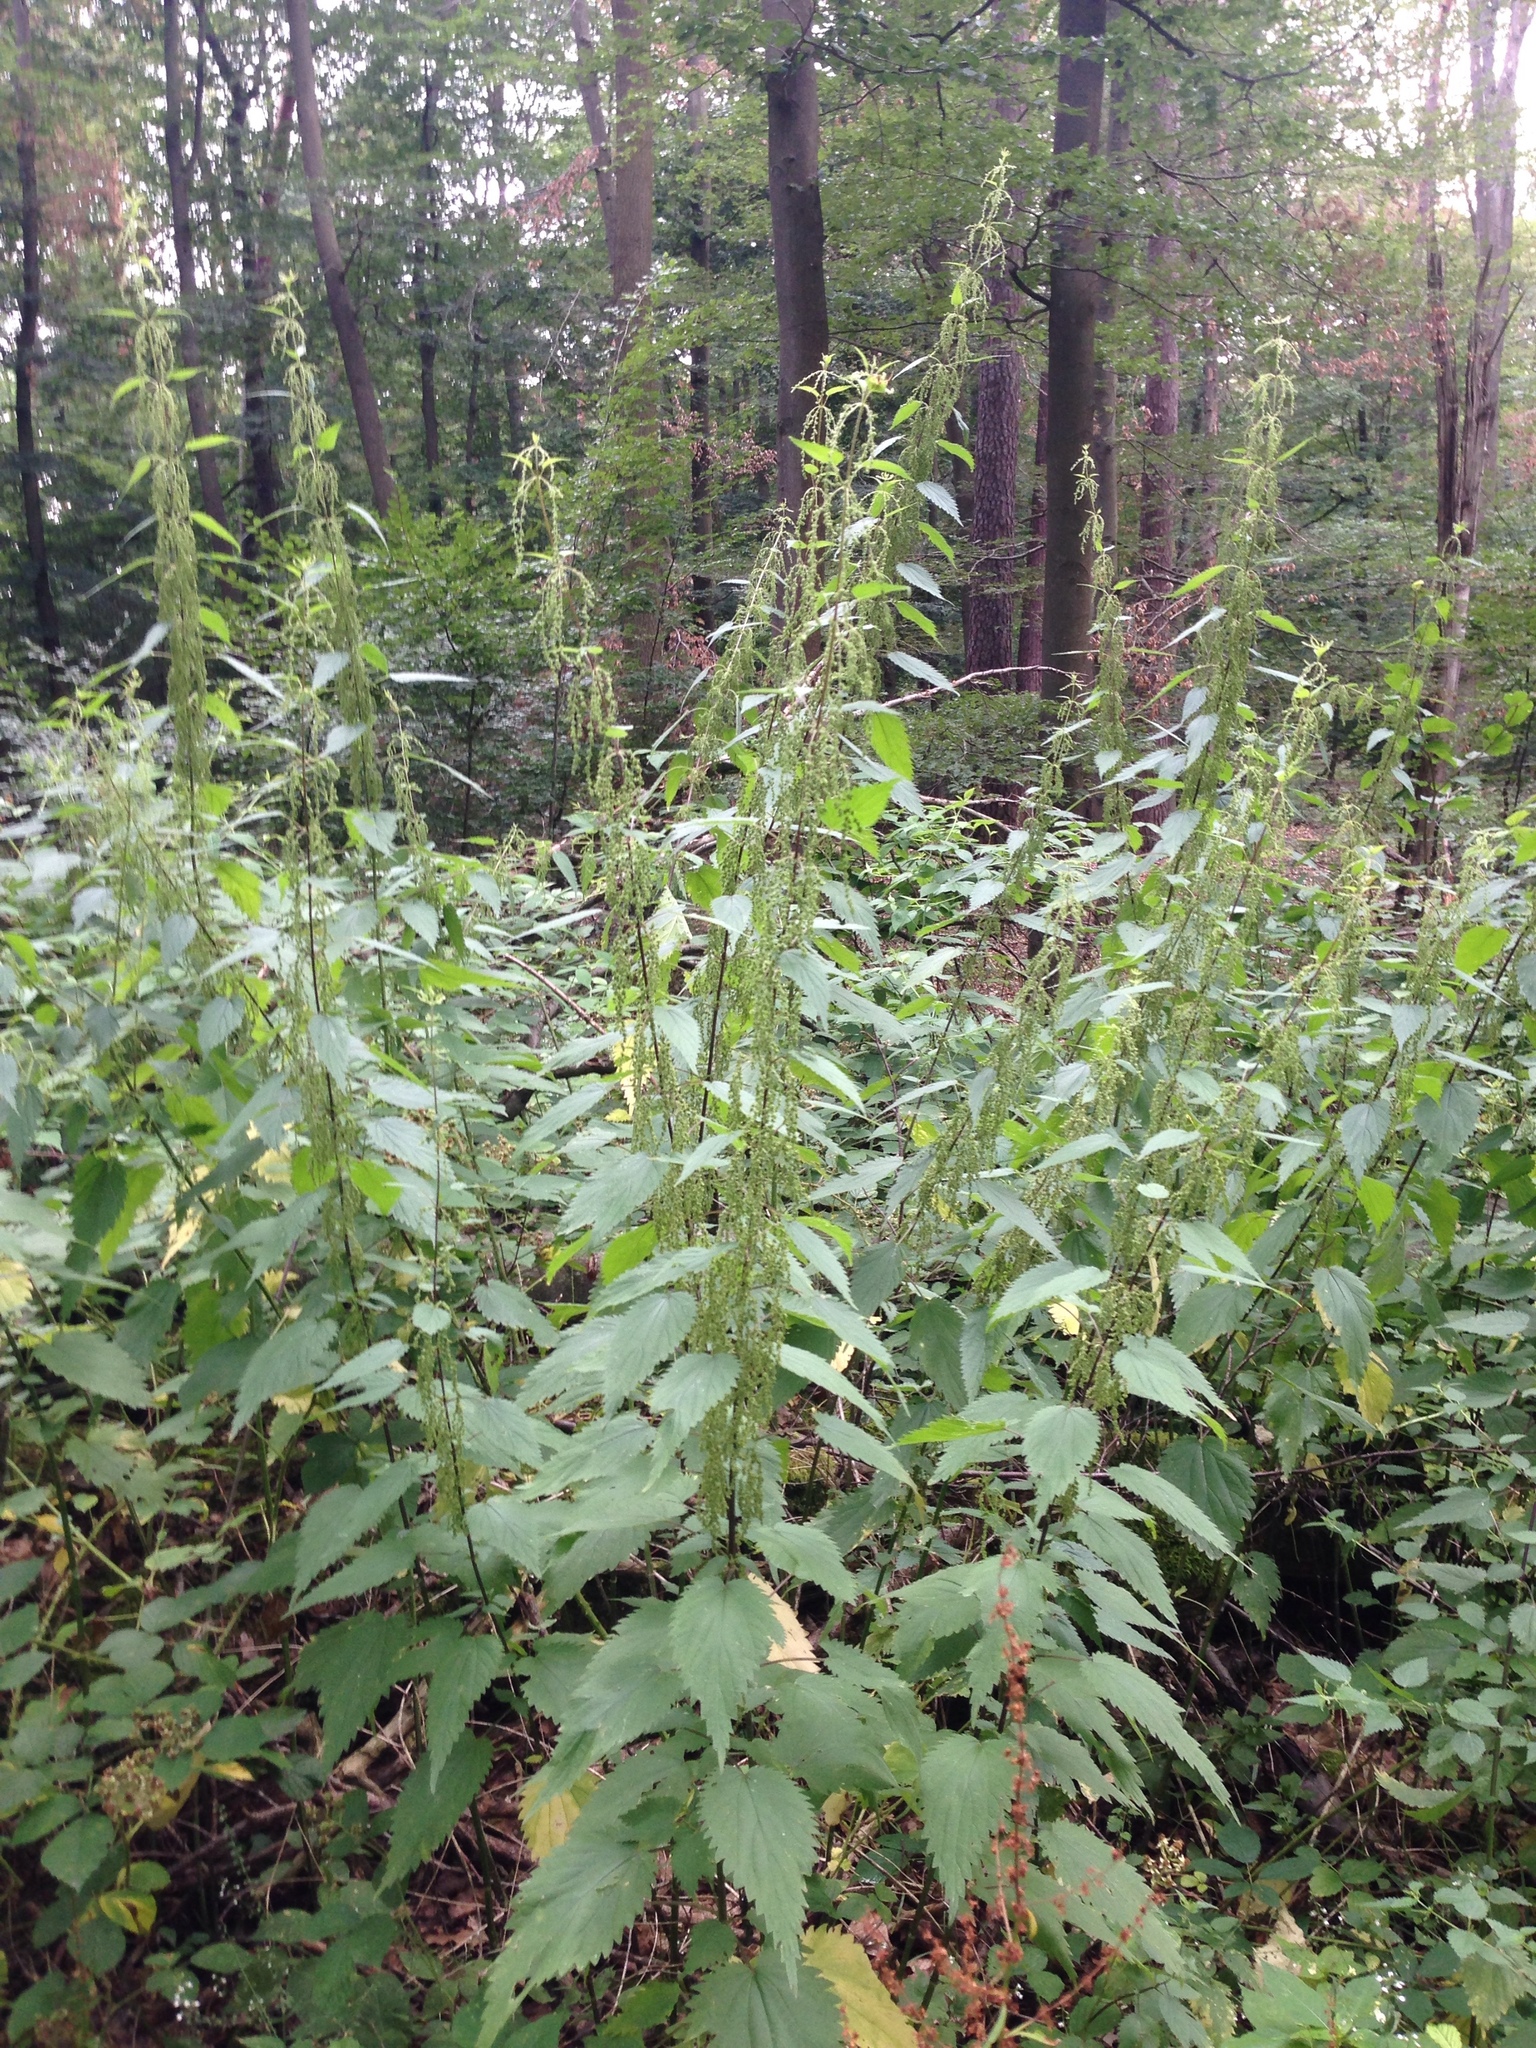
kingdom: Plantae
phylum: Tracheophyta
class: Magnoliopsida
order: Rosales
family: Urticaceae
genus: Urtica
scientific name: Urtica dioica
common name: Common nettle
